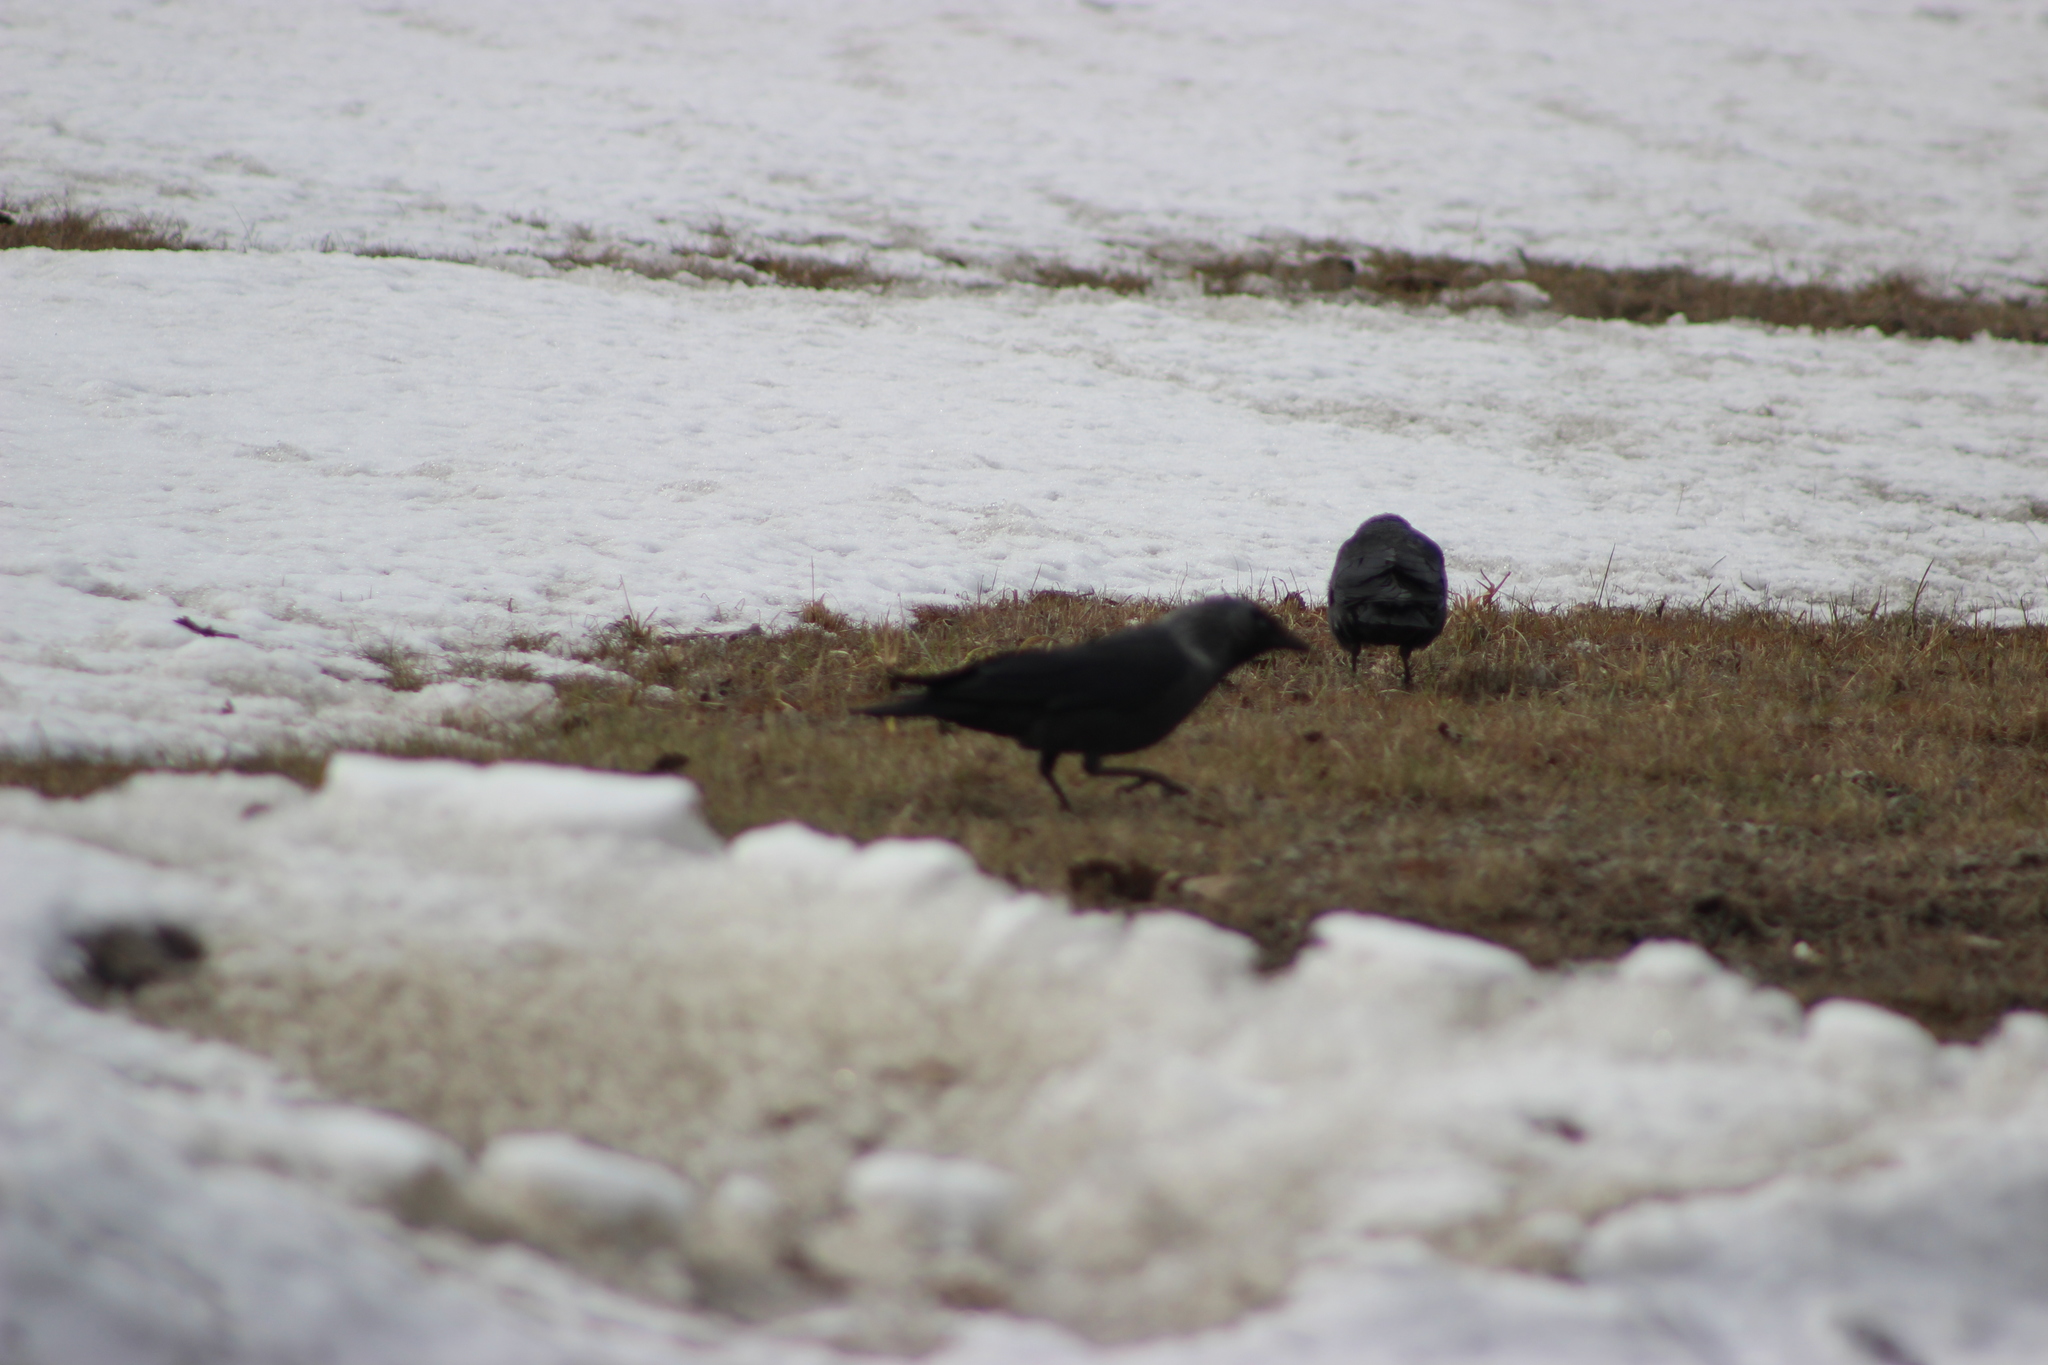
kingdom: Animalia
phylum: Chordata
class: Aves
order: Passeriformes
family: Corvidae
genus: Coloeus
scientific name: Coloeus monedula
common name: Western jackdaw
